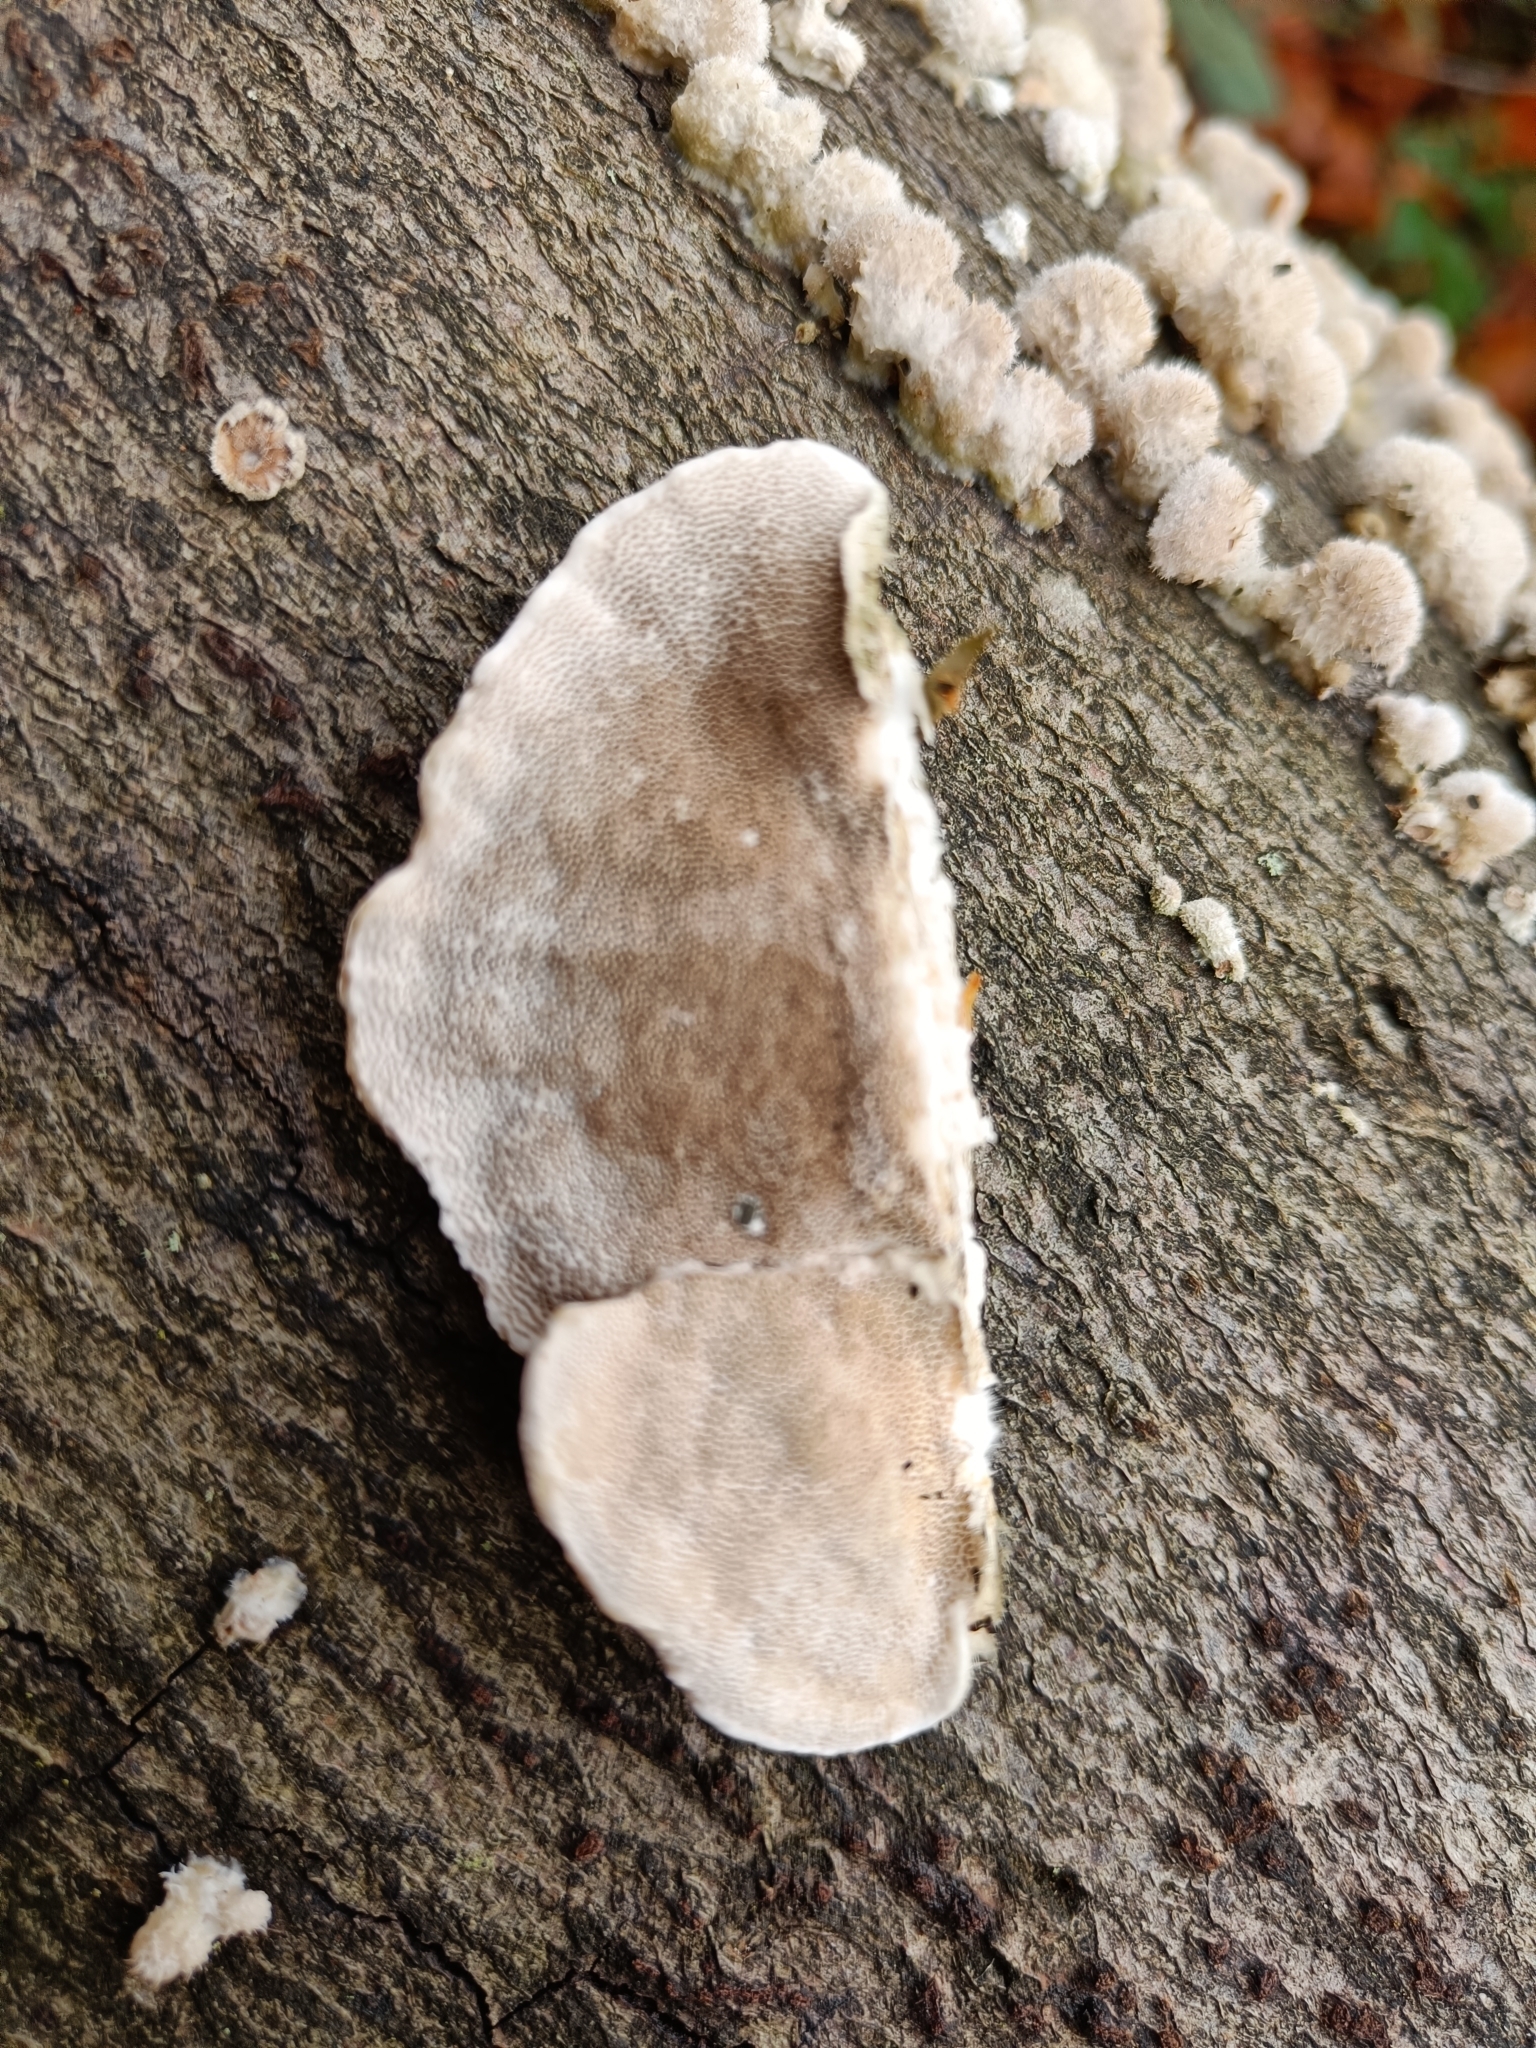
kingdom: Fungi
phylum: Basidiomycota
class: Agaricomycetes
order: Polyporales
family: Polyporaceae
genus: Trametes
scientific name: Trametes hirsuta
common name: Hairy bracket
